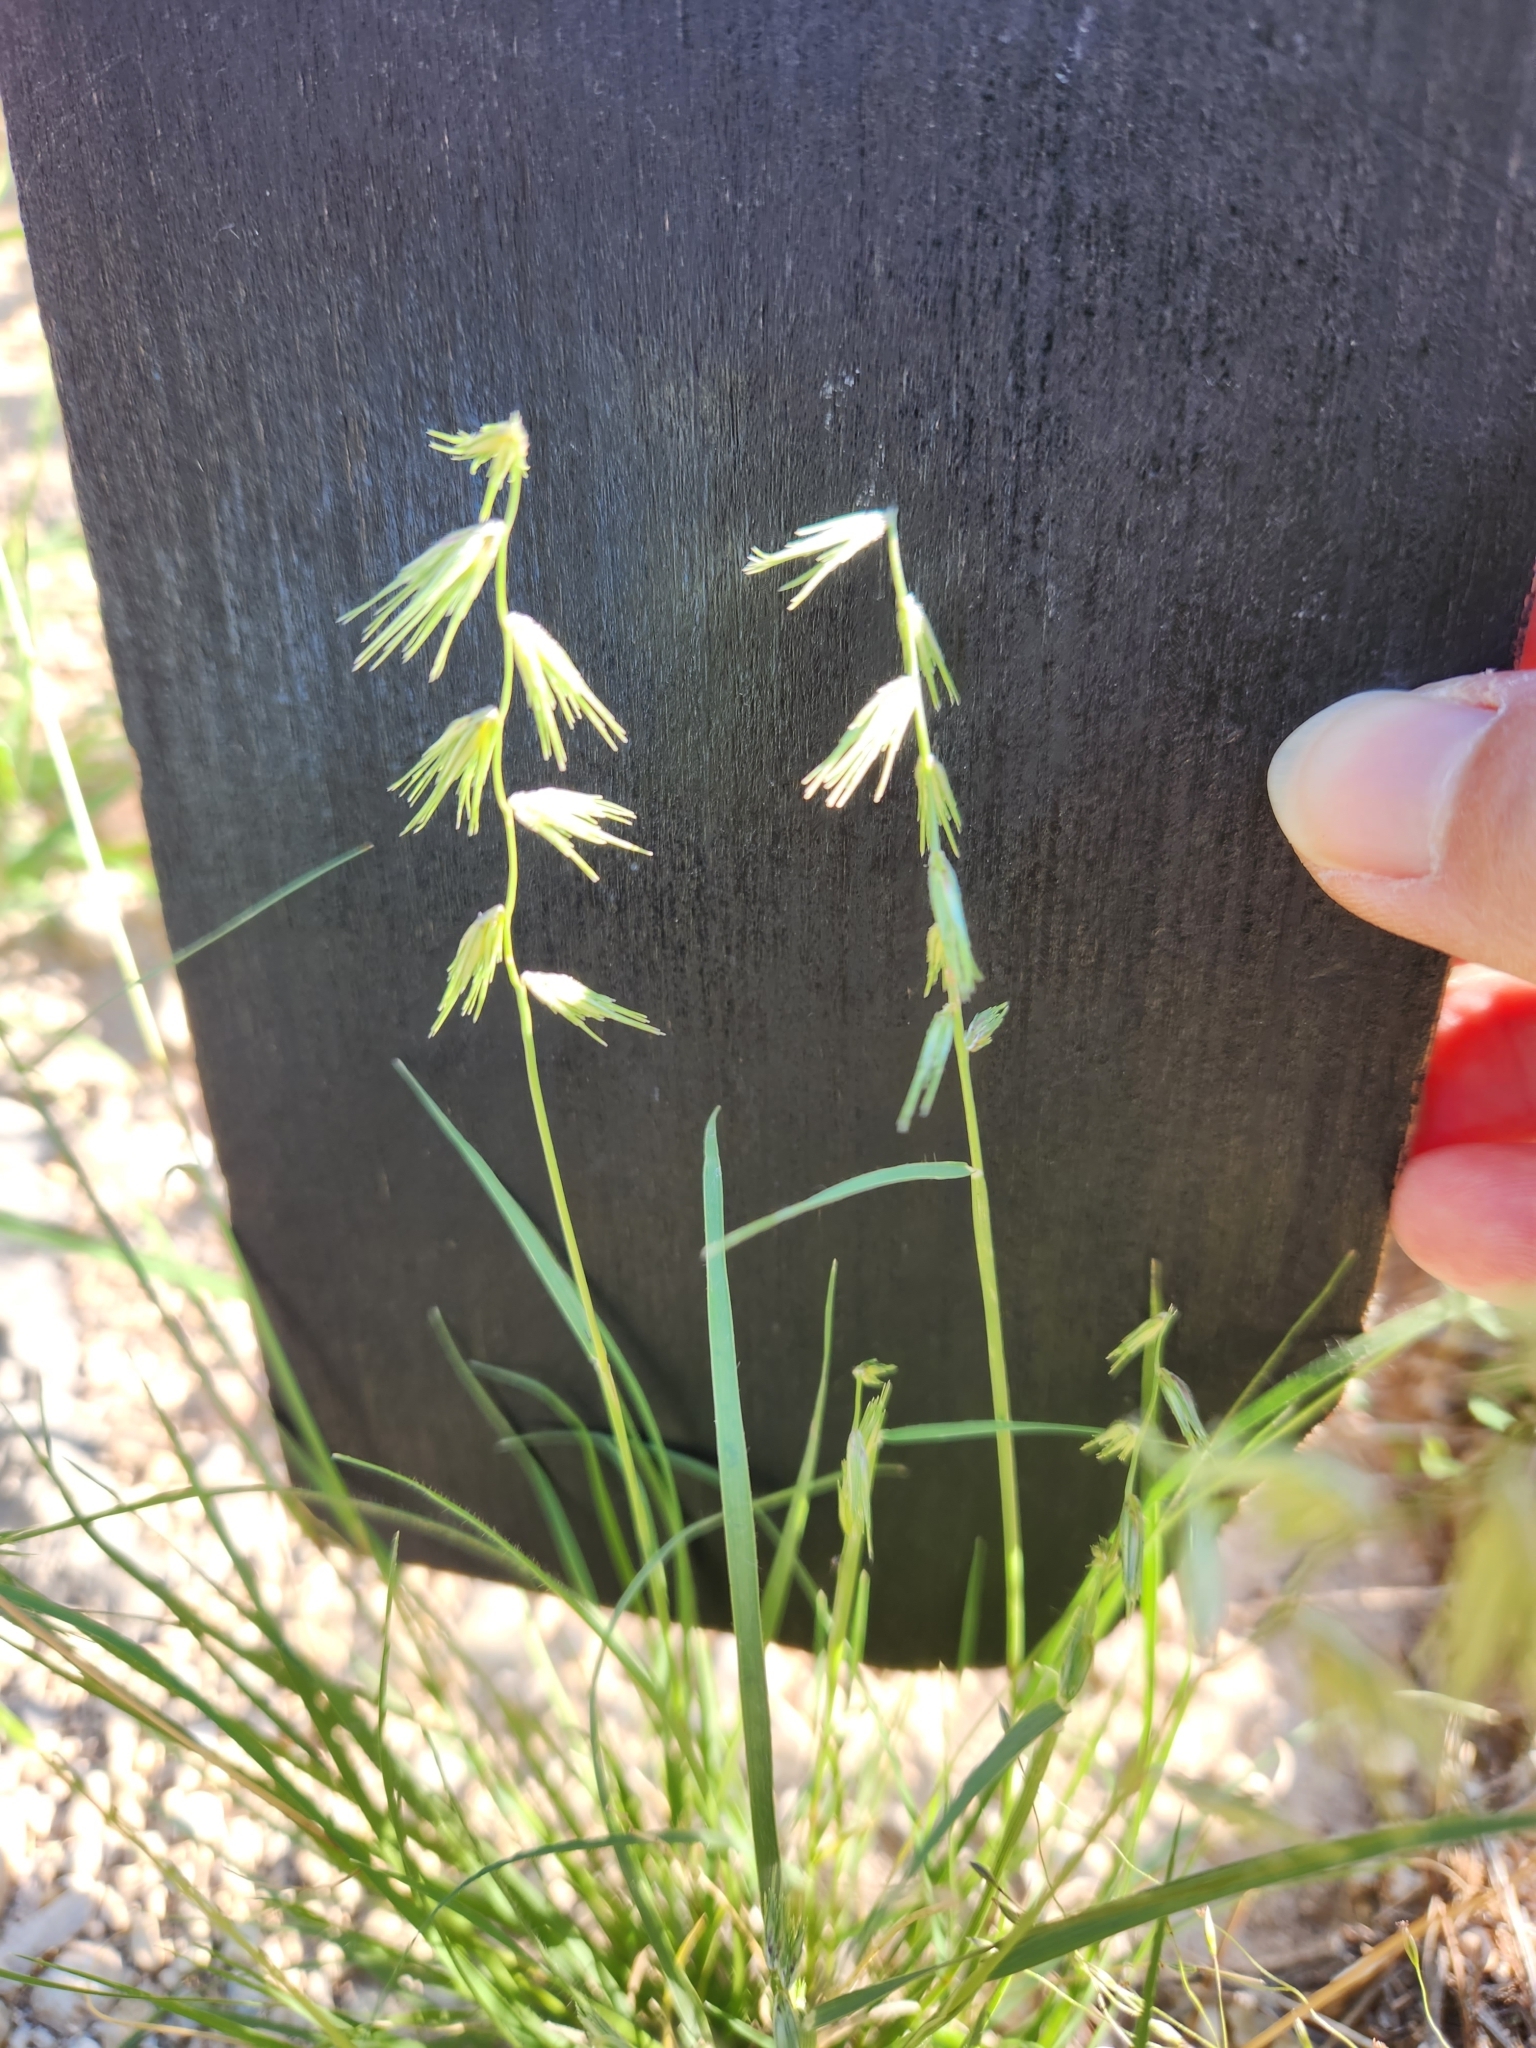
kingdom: Plantae
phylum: Tracheophyta
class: Liliopsida
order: Poales
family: Poaceae
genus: Bouteloua
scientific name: Bouteloua rigidiseta
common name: Texas grama
